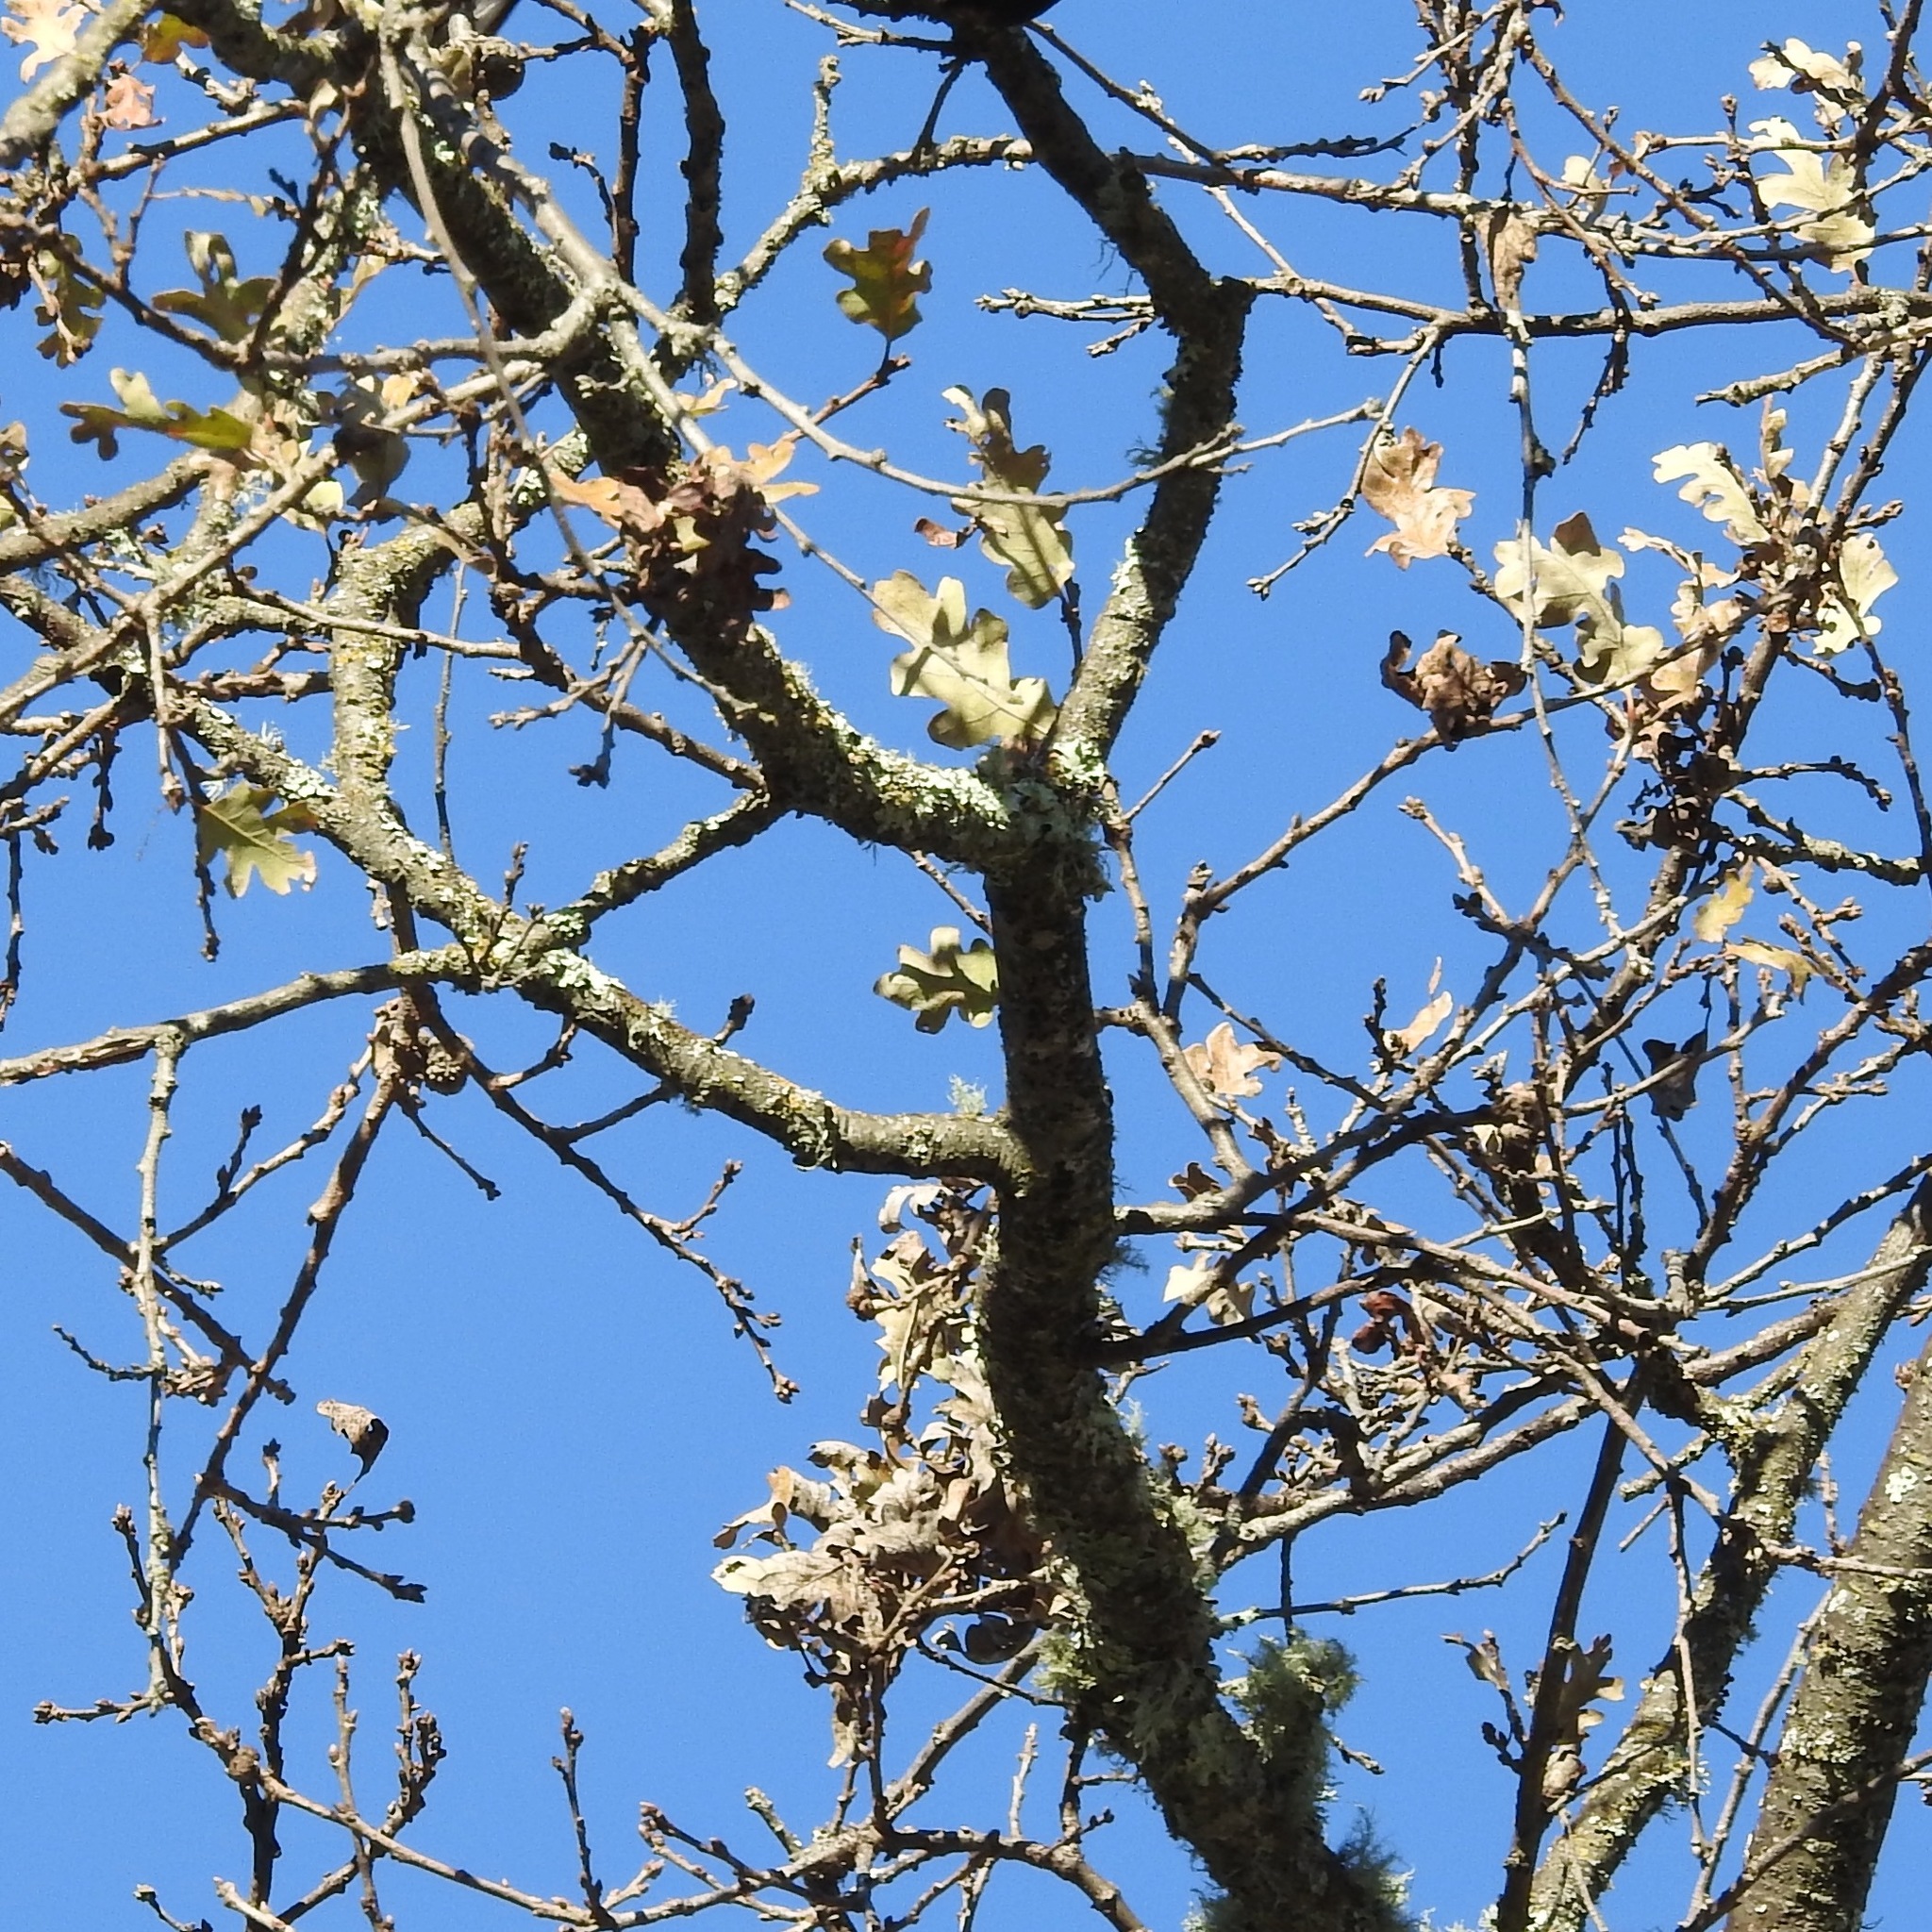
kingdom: Plantae
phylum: Tracheophyta
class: Magnoliopsida
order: Fagales
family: Fagaceae
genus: Quercus
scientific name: Quercus lobata
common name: Valley oak
